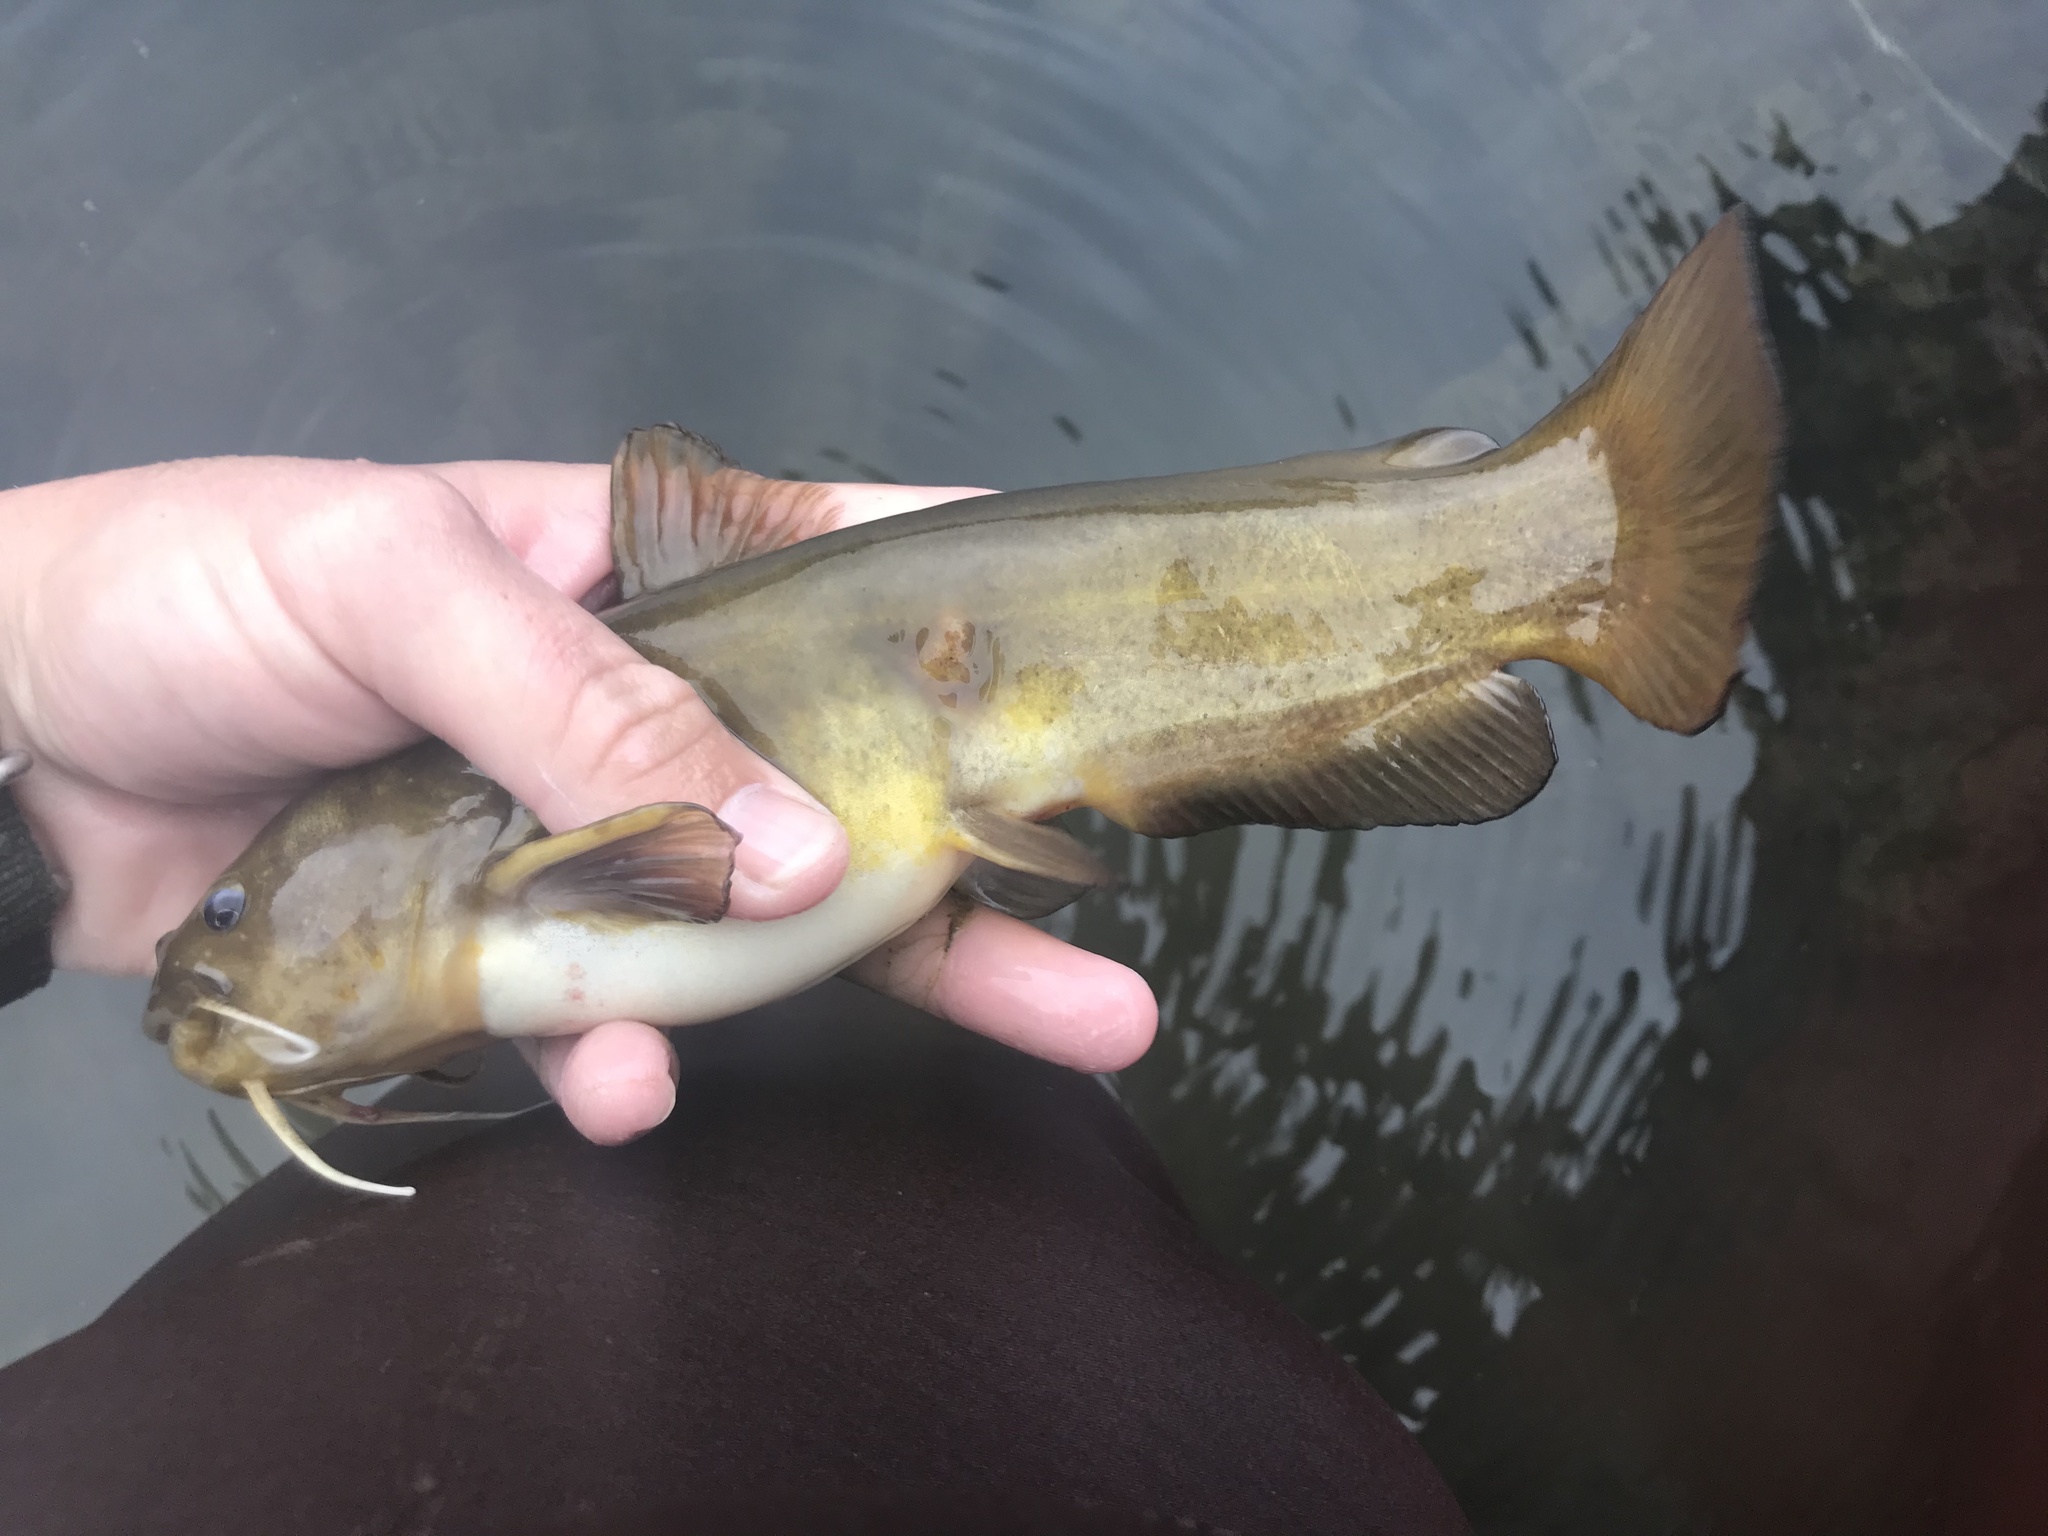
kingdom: Animalia
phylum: Chordata
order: Siluriformes
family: Ictaluridae
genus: Ameiurus
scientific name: Ameiurus natalis
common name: Yellow bullhead
